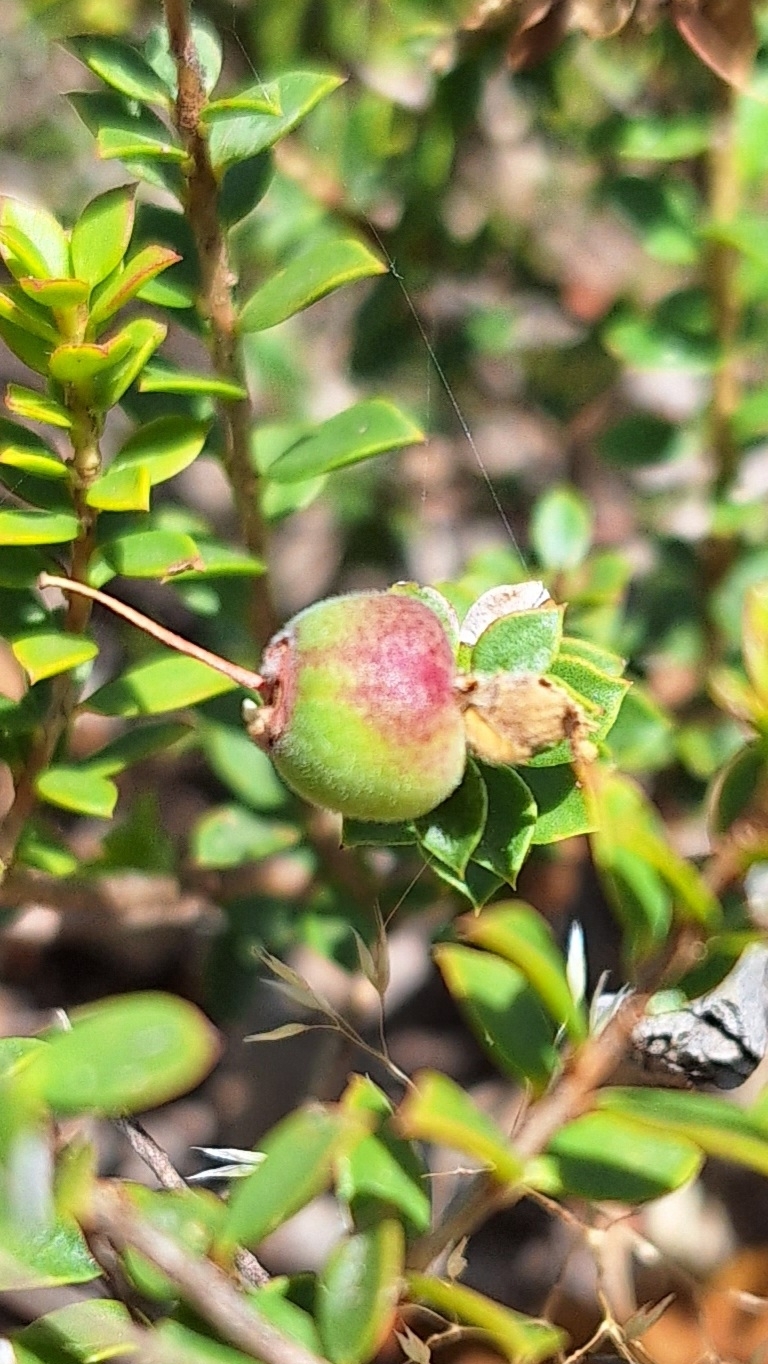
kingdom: Plantae
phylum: Tracheophyta
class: Magnoliopsida
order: Myrtales
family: Myrtaceae
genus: Kunzea
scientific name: Kunzea pomifera
